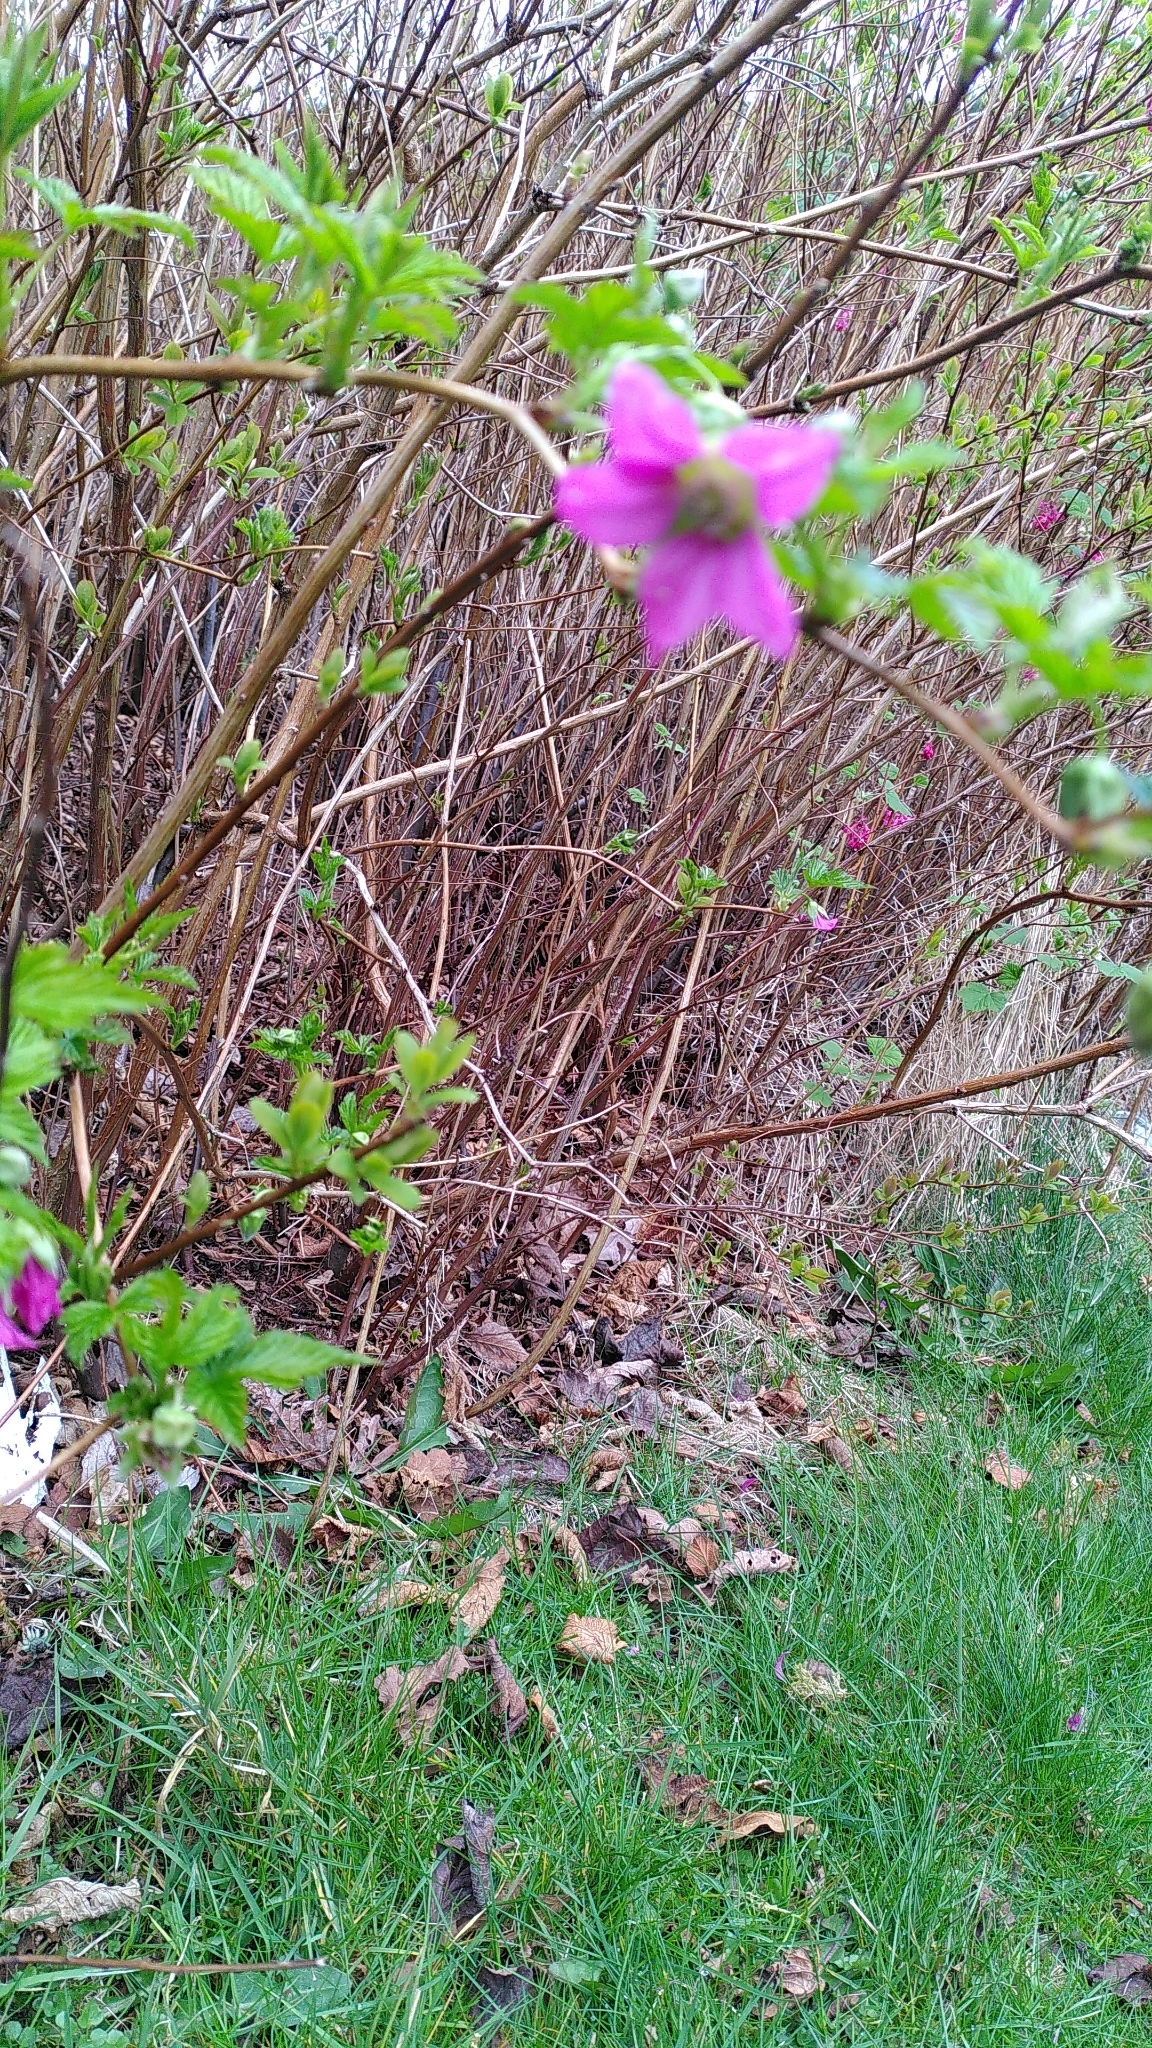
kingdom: Plantae
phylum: Tracheophyta
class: Magnoliopsida
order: Rosales
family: Rosaceae
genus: Rubus
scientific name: Rubus spectabilis
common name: Salmonberry
